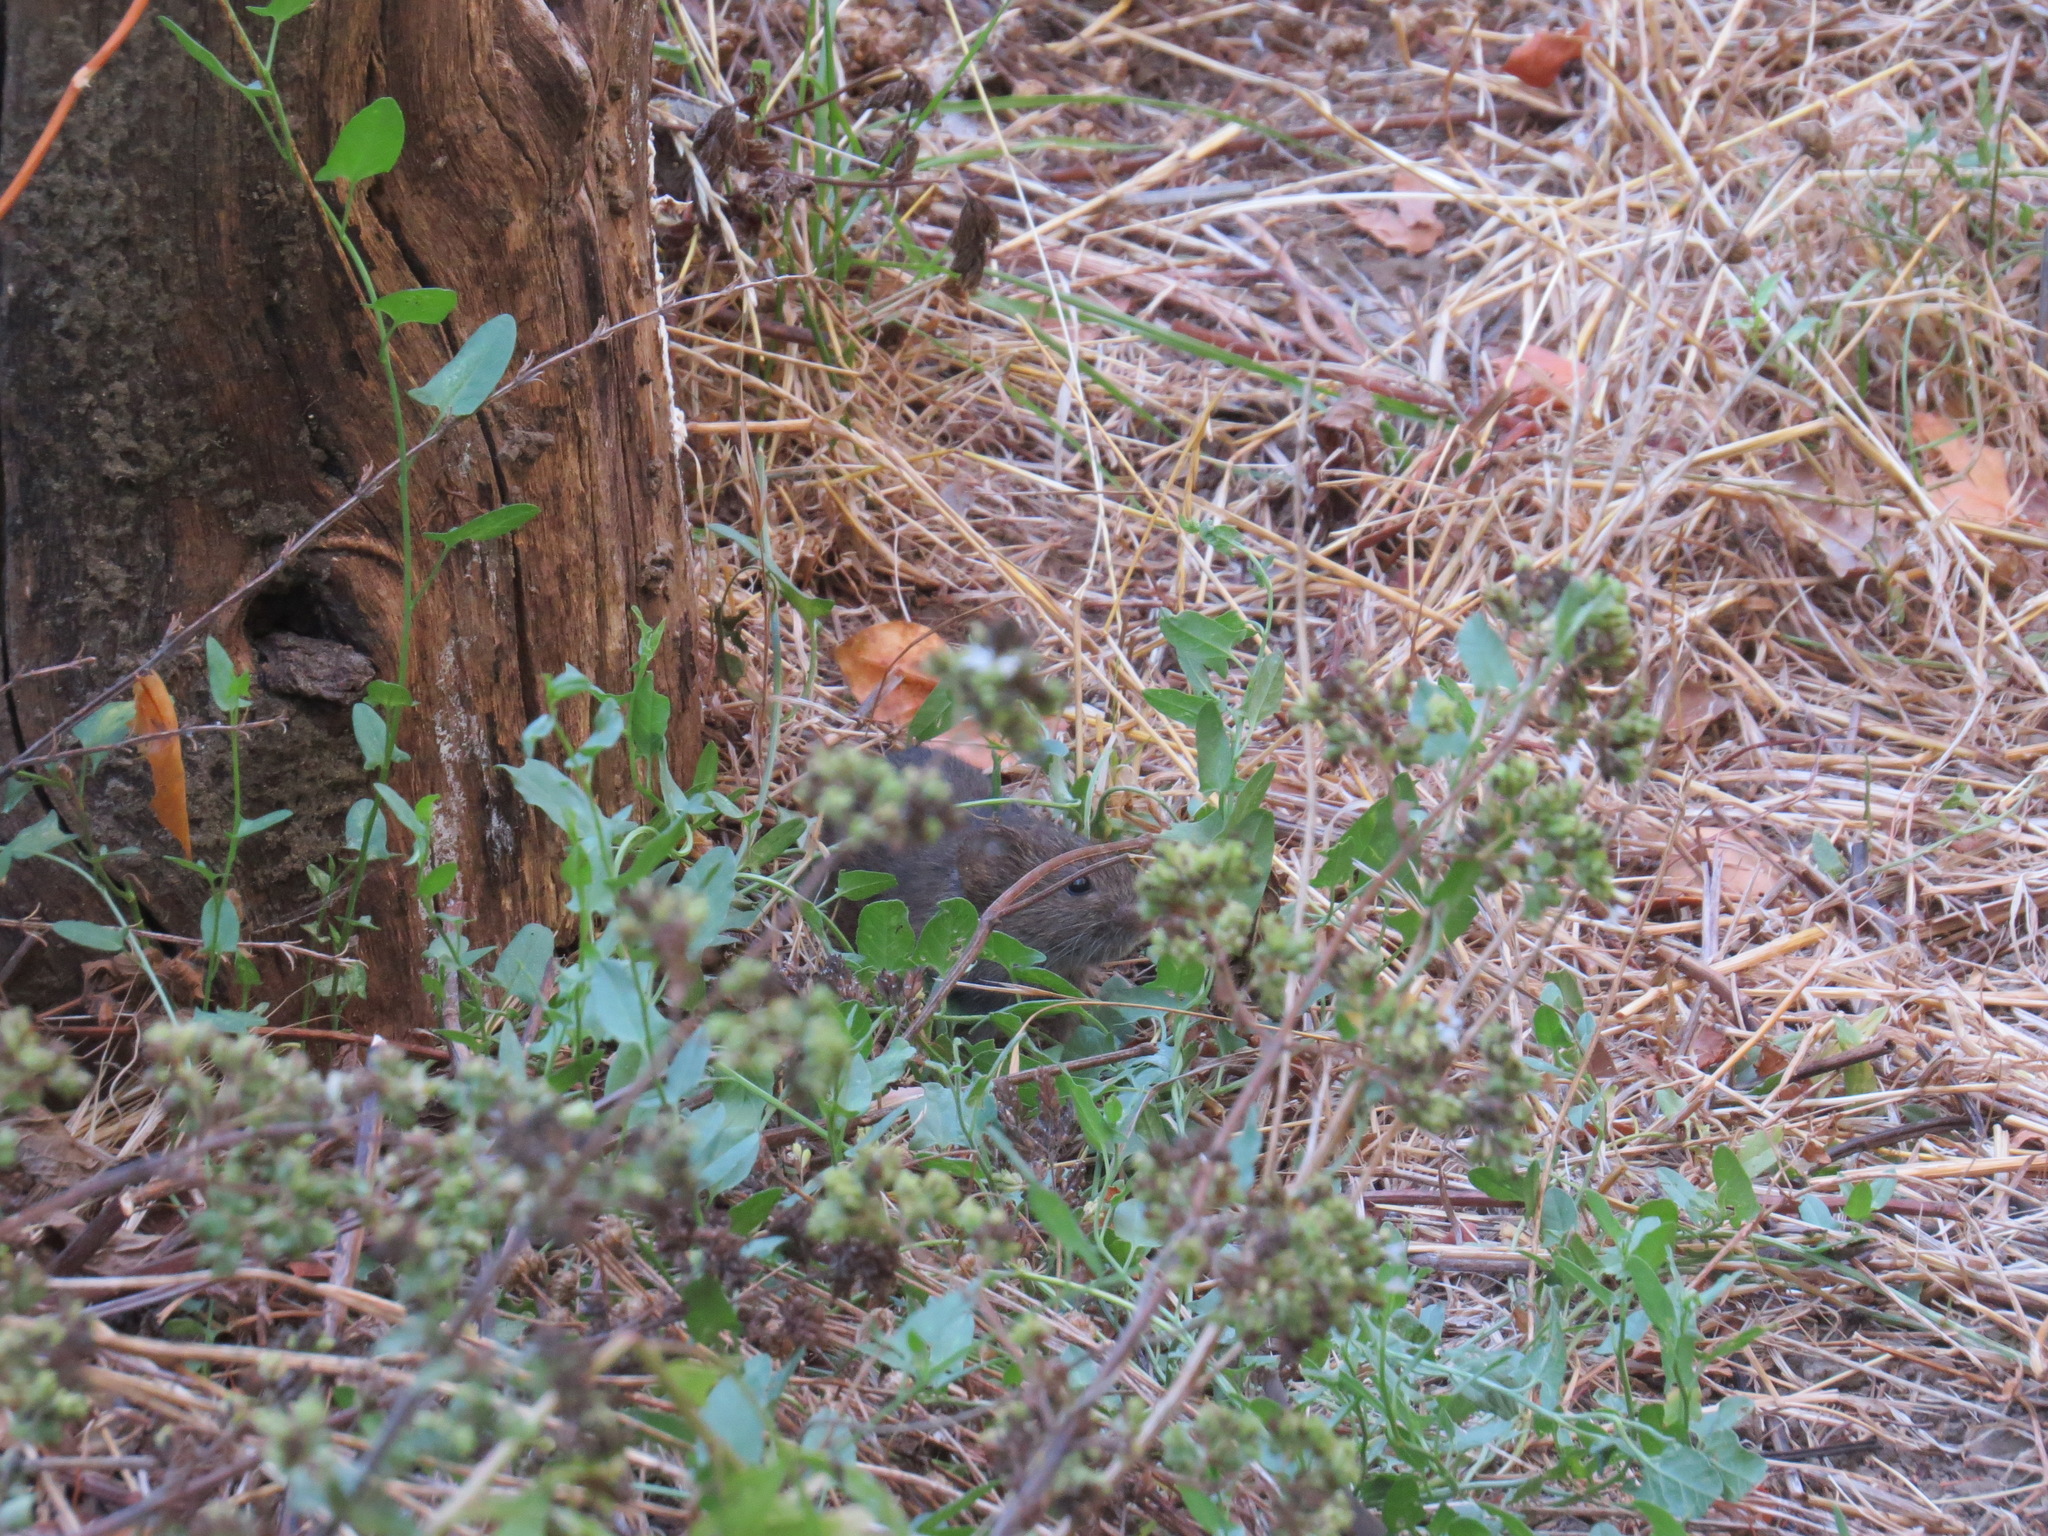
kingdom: Animalia
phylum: Chordata
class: Mammalia
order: Rodentia
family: Cricetidae
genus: Microtus
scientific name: Microtus californicus
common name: California vole
